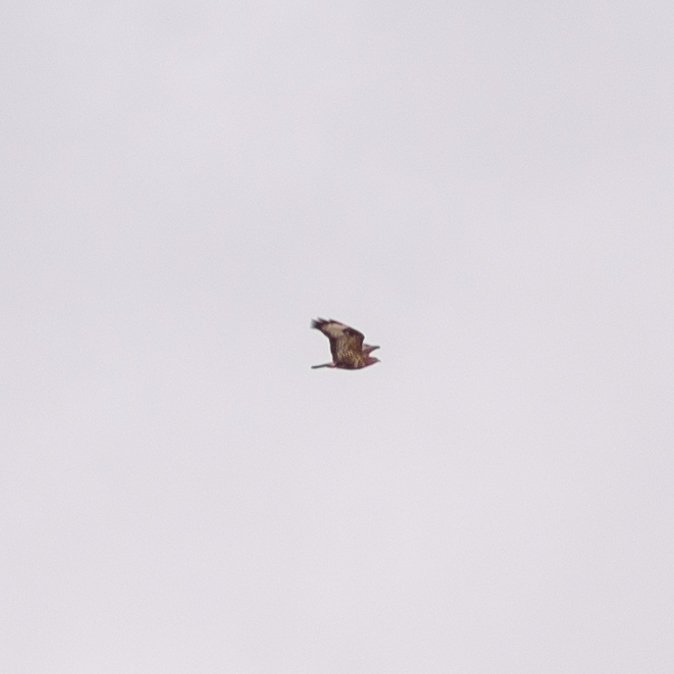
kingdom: Animalia
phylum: Chordata
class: Aves
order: Accipitriformes
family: Accipitridae
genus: Buteo
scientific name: Buteo buteo
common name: Common buzzard
